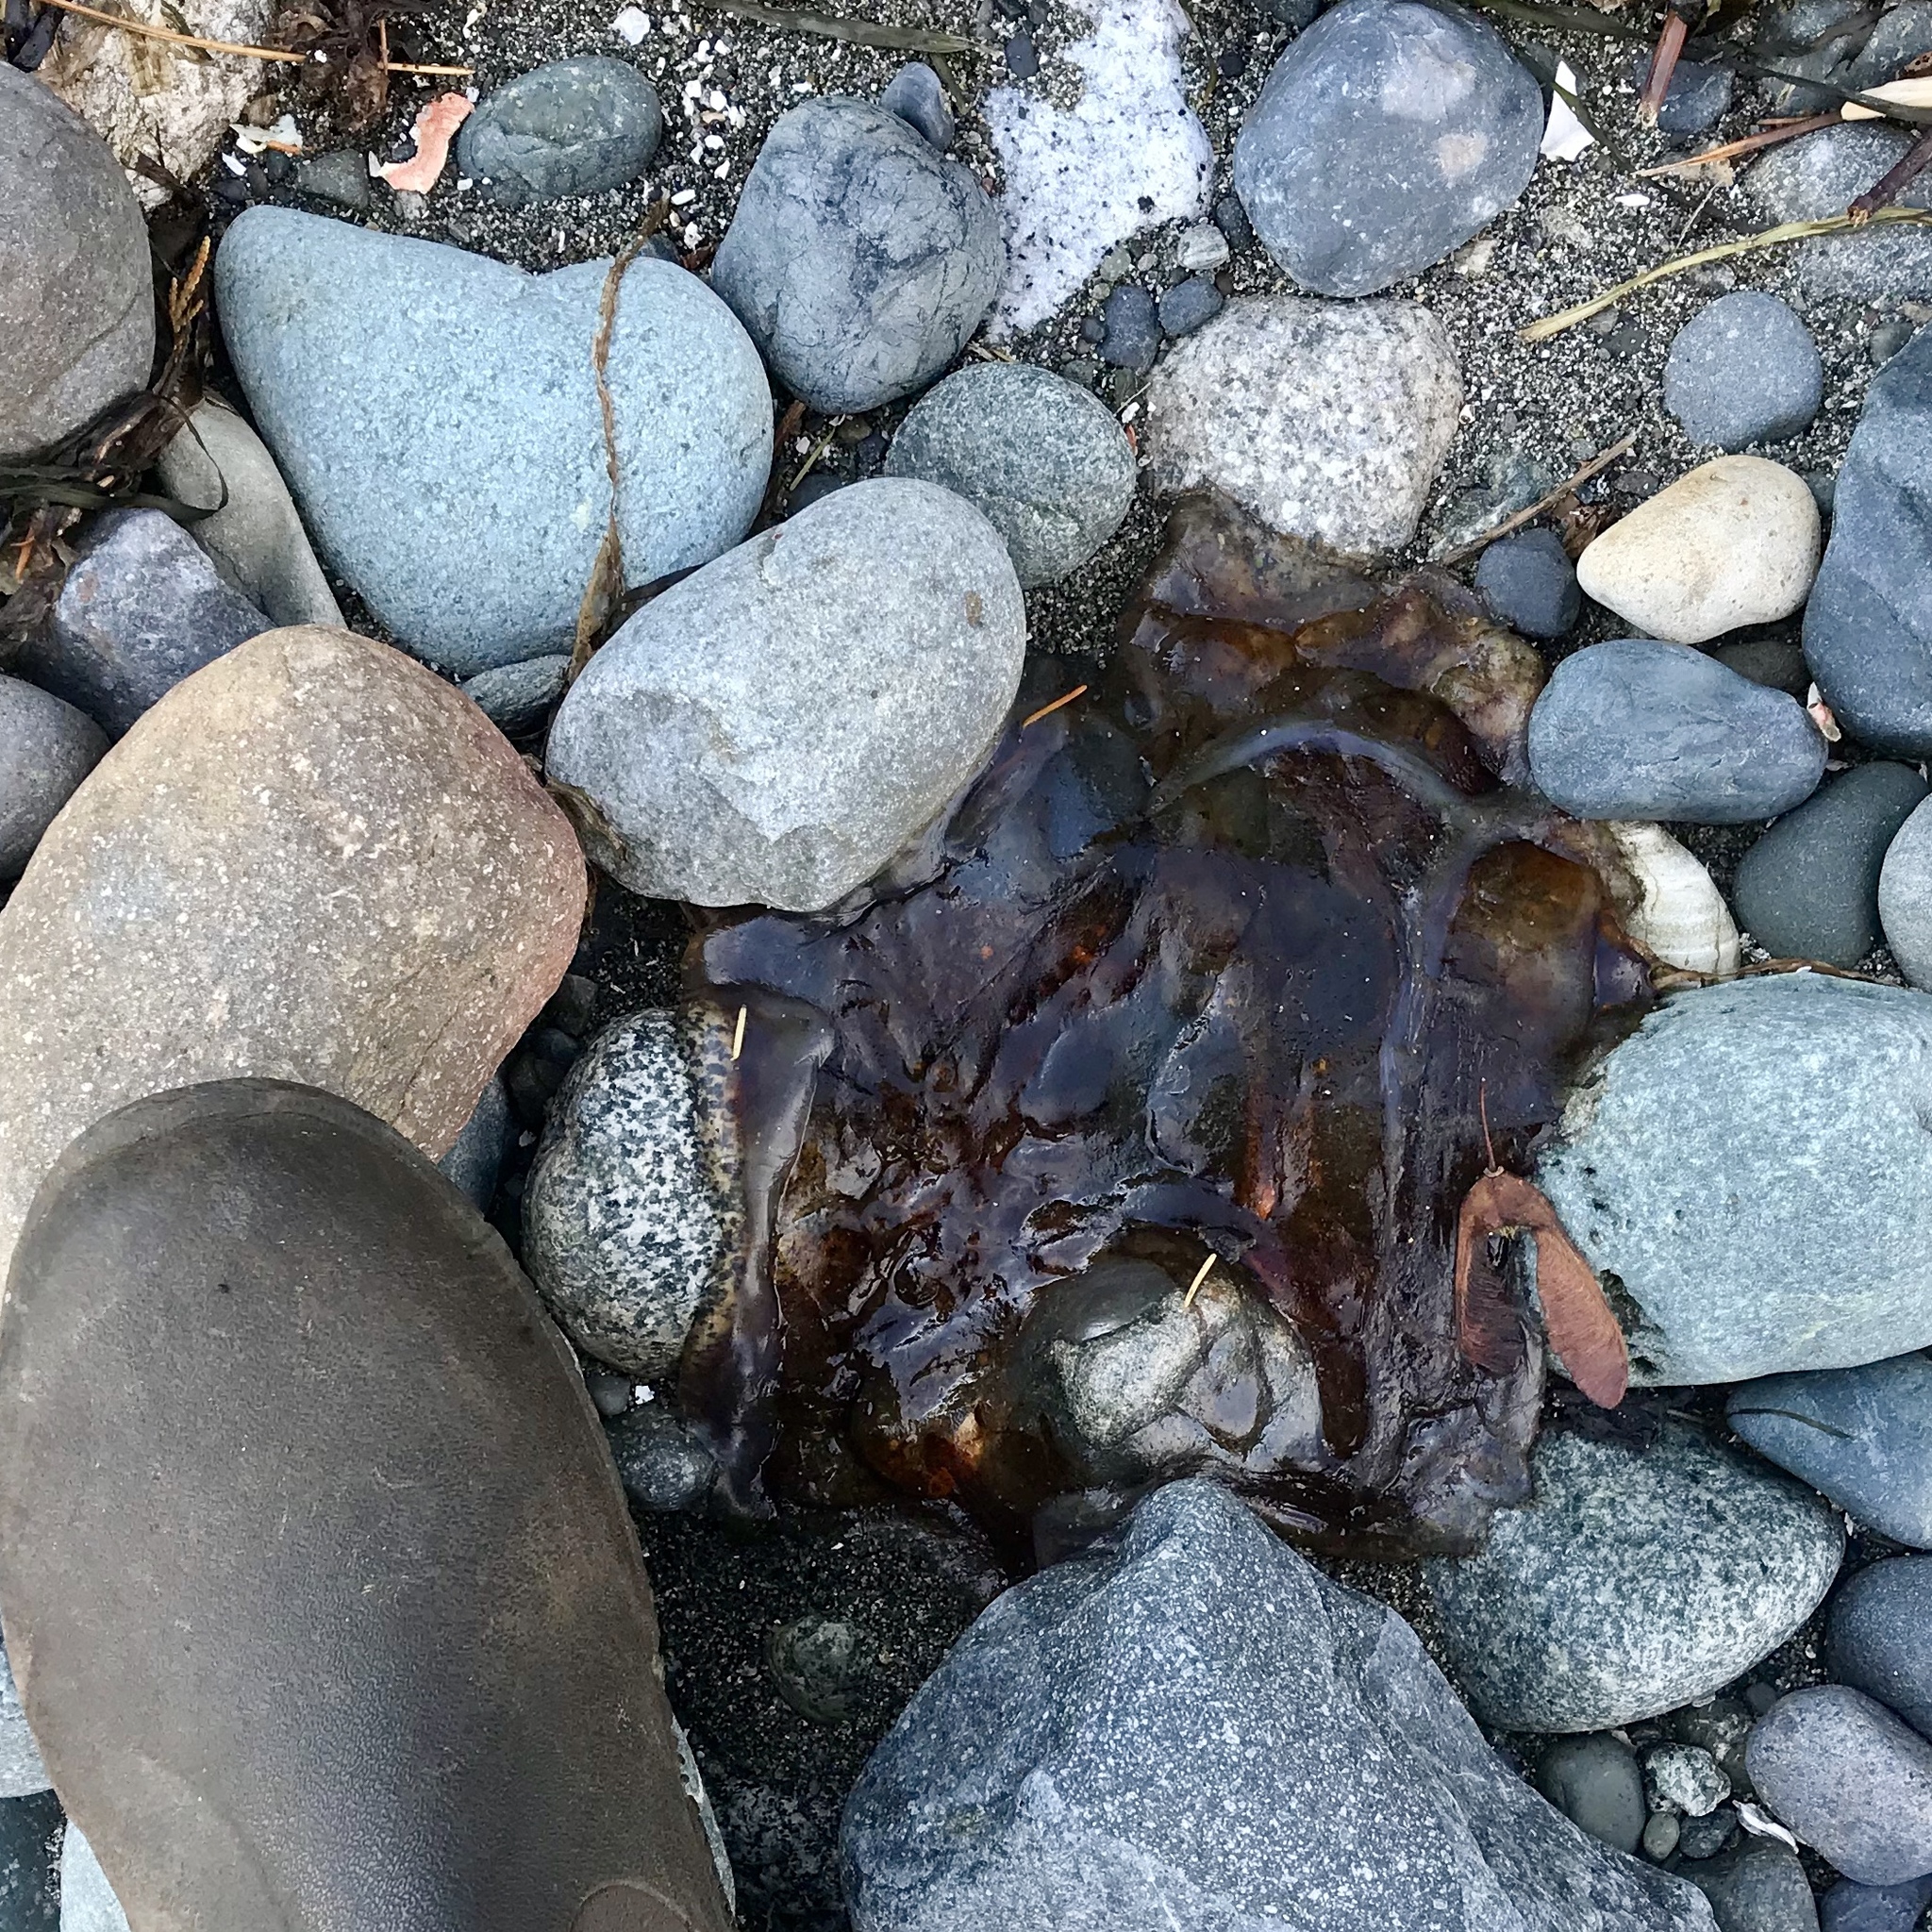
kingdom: Animalia
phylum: Cnidaria
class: Scyphozoa
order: Semaeostomeae
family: Cyaneidae
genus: Cyanea
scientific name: Cyanea ferruginea
